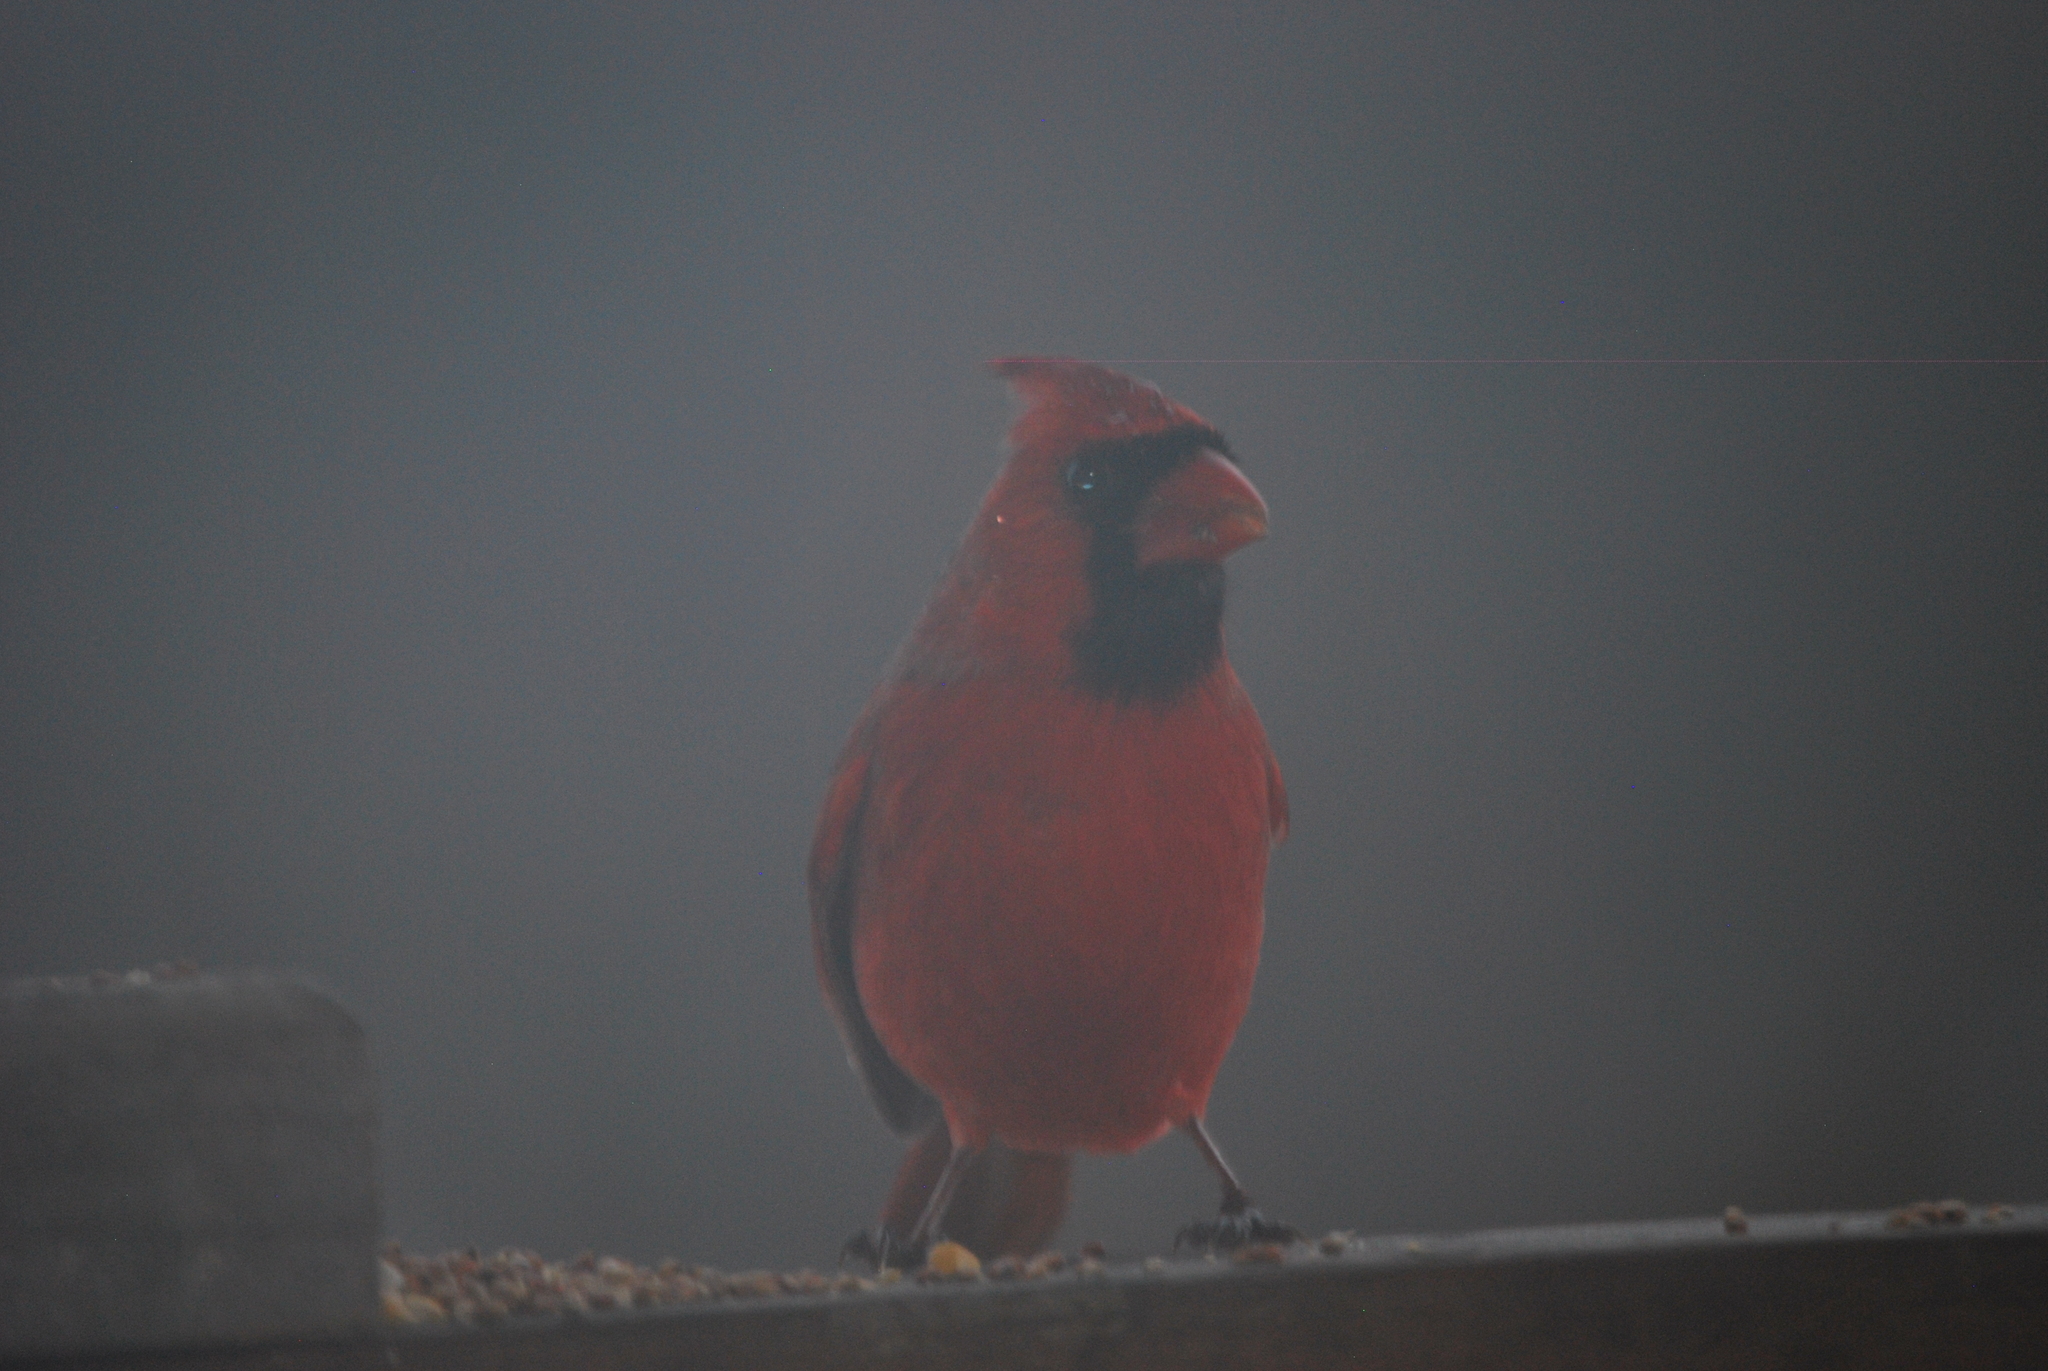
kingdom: Animalia
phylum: Chordata
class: Aves
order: Passeriformes
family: Cardinalidae
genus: Cardinalis
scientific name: Cardinalis cardinalis
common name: Northern cardinal
